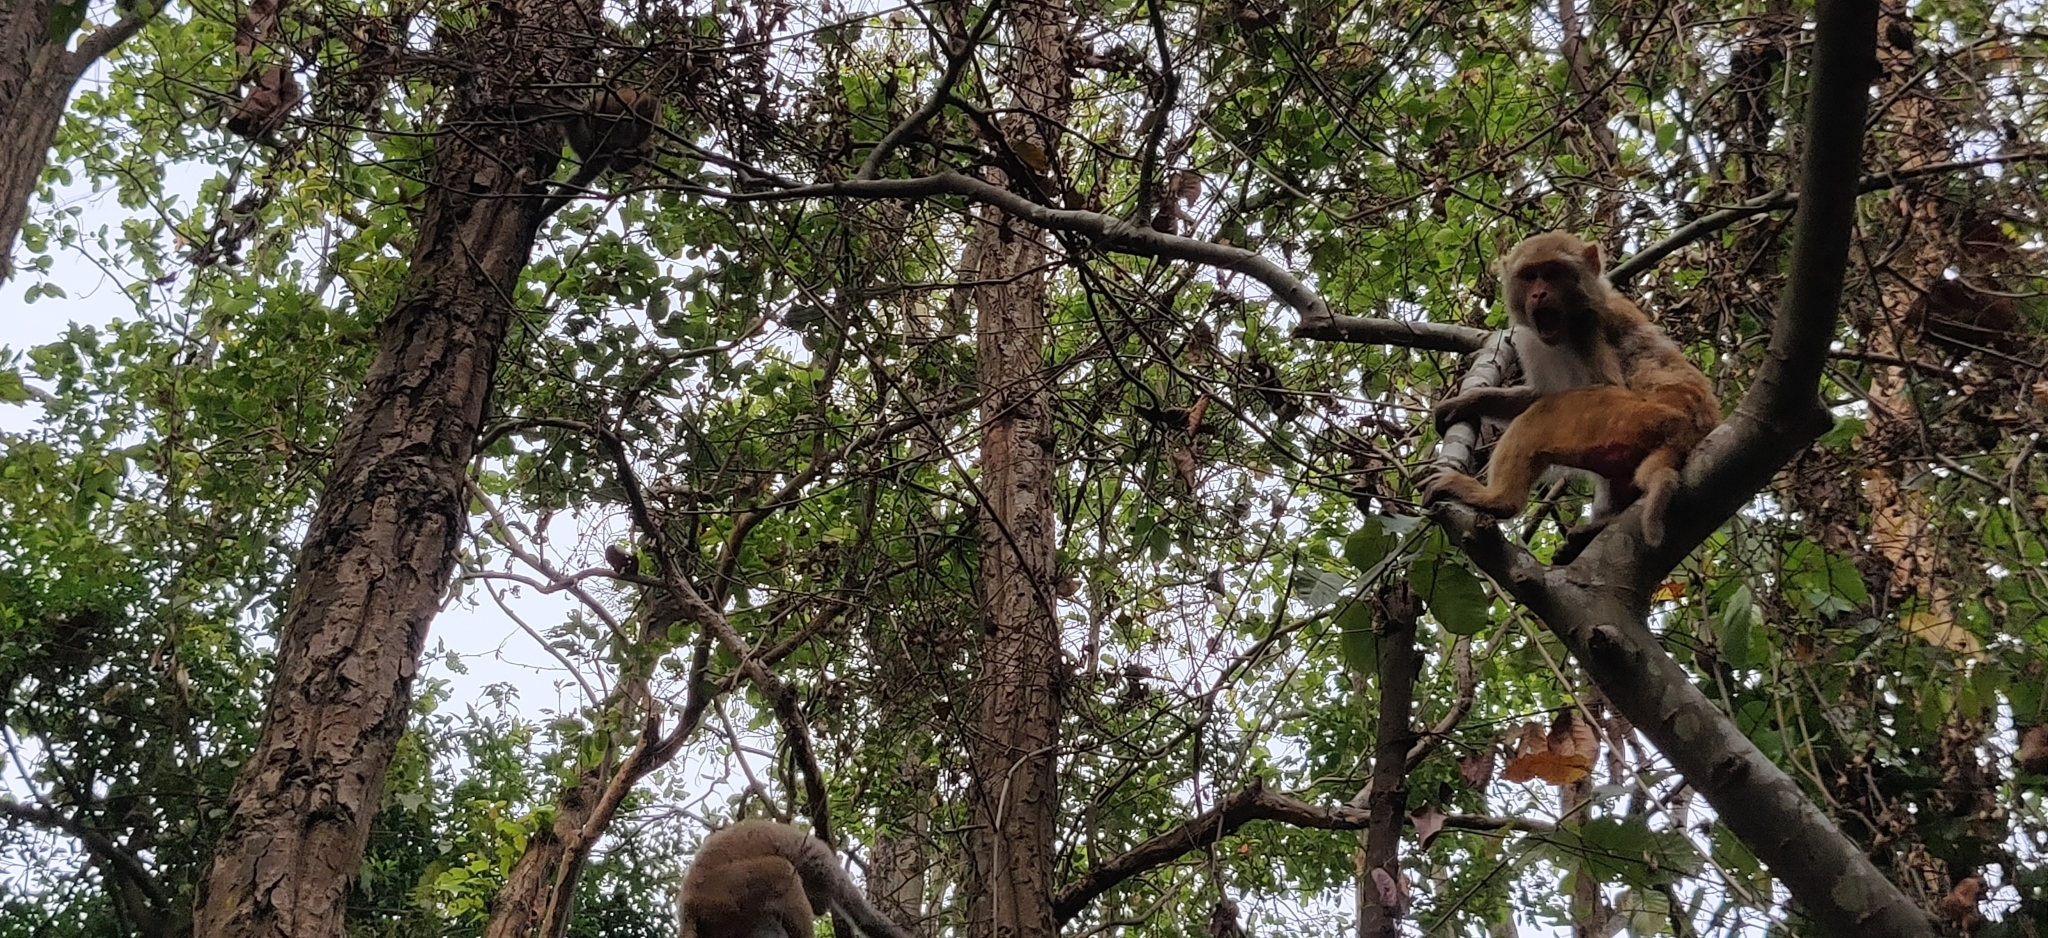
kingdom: Animalia
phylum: Chordata
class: Mammalia
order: Primates
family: Cercopithecidae
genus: Macaca
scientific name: Macaca mulatta
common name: Rhesus monkey
